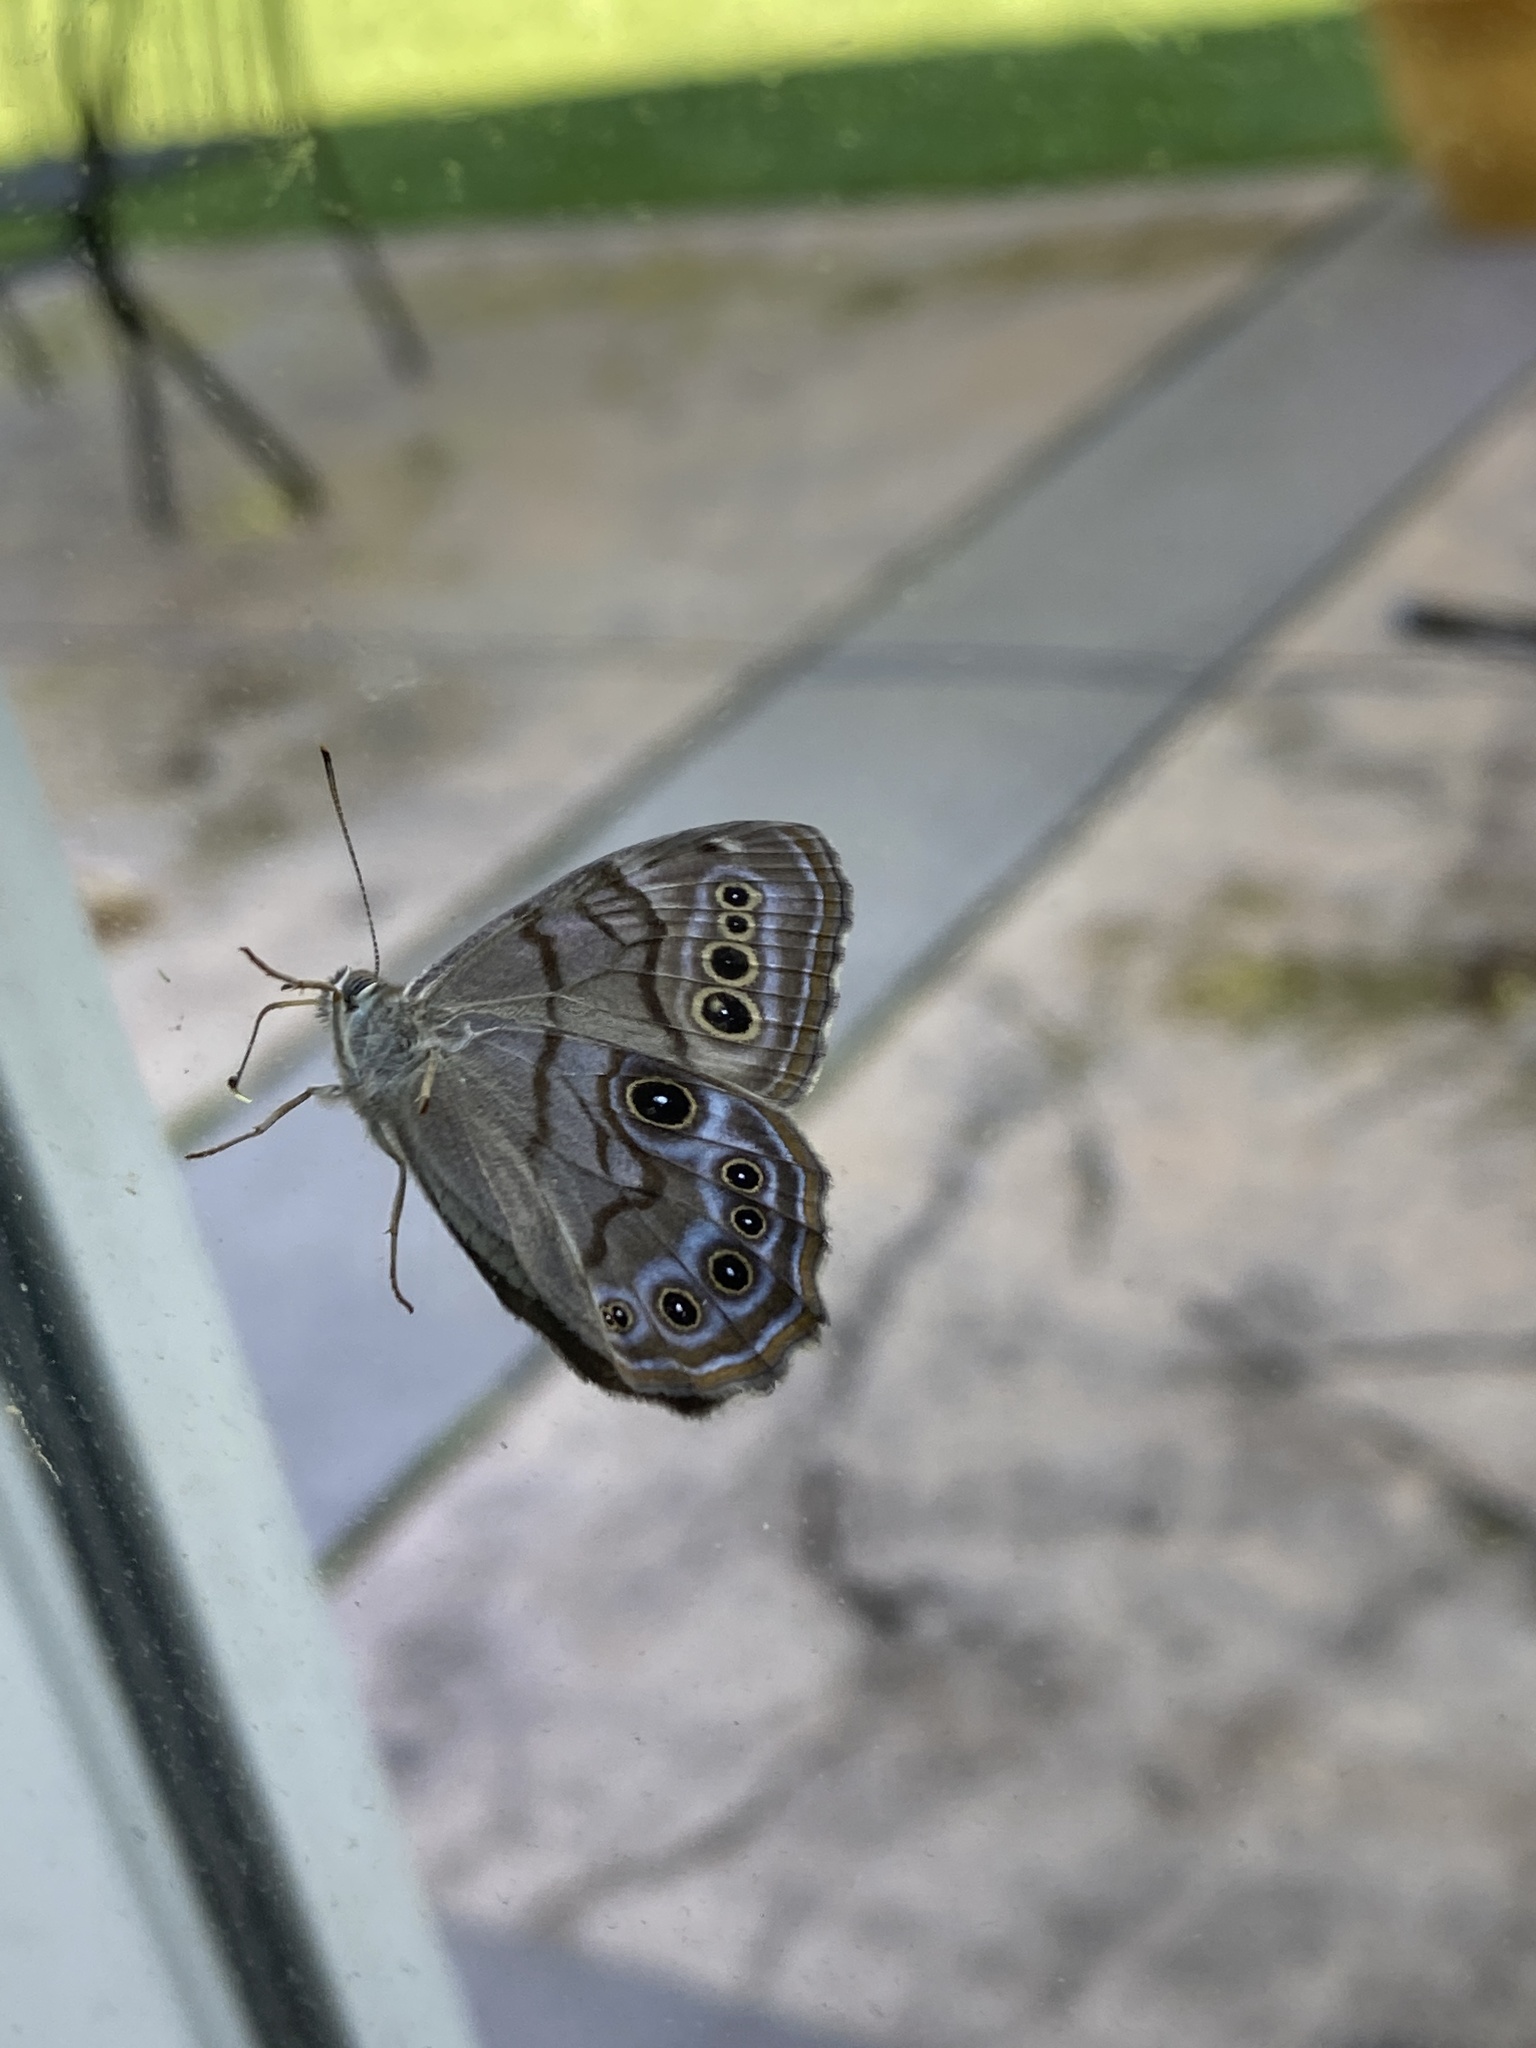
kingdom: Animalia
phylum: Arthropoda
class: Insecta
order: Lepidoptera
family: Nymphalidae
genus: Lethe
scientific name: Lethe anthedon
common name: Northern pearly-eye
